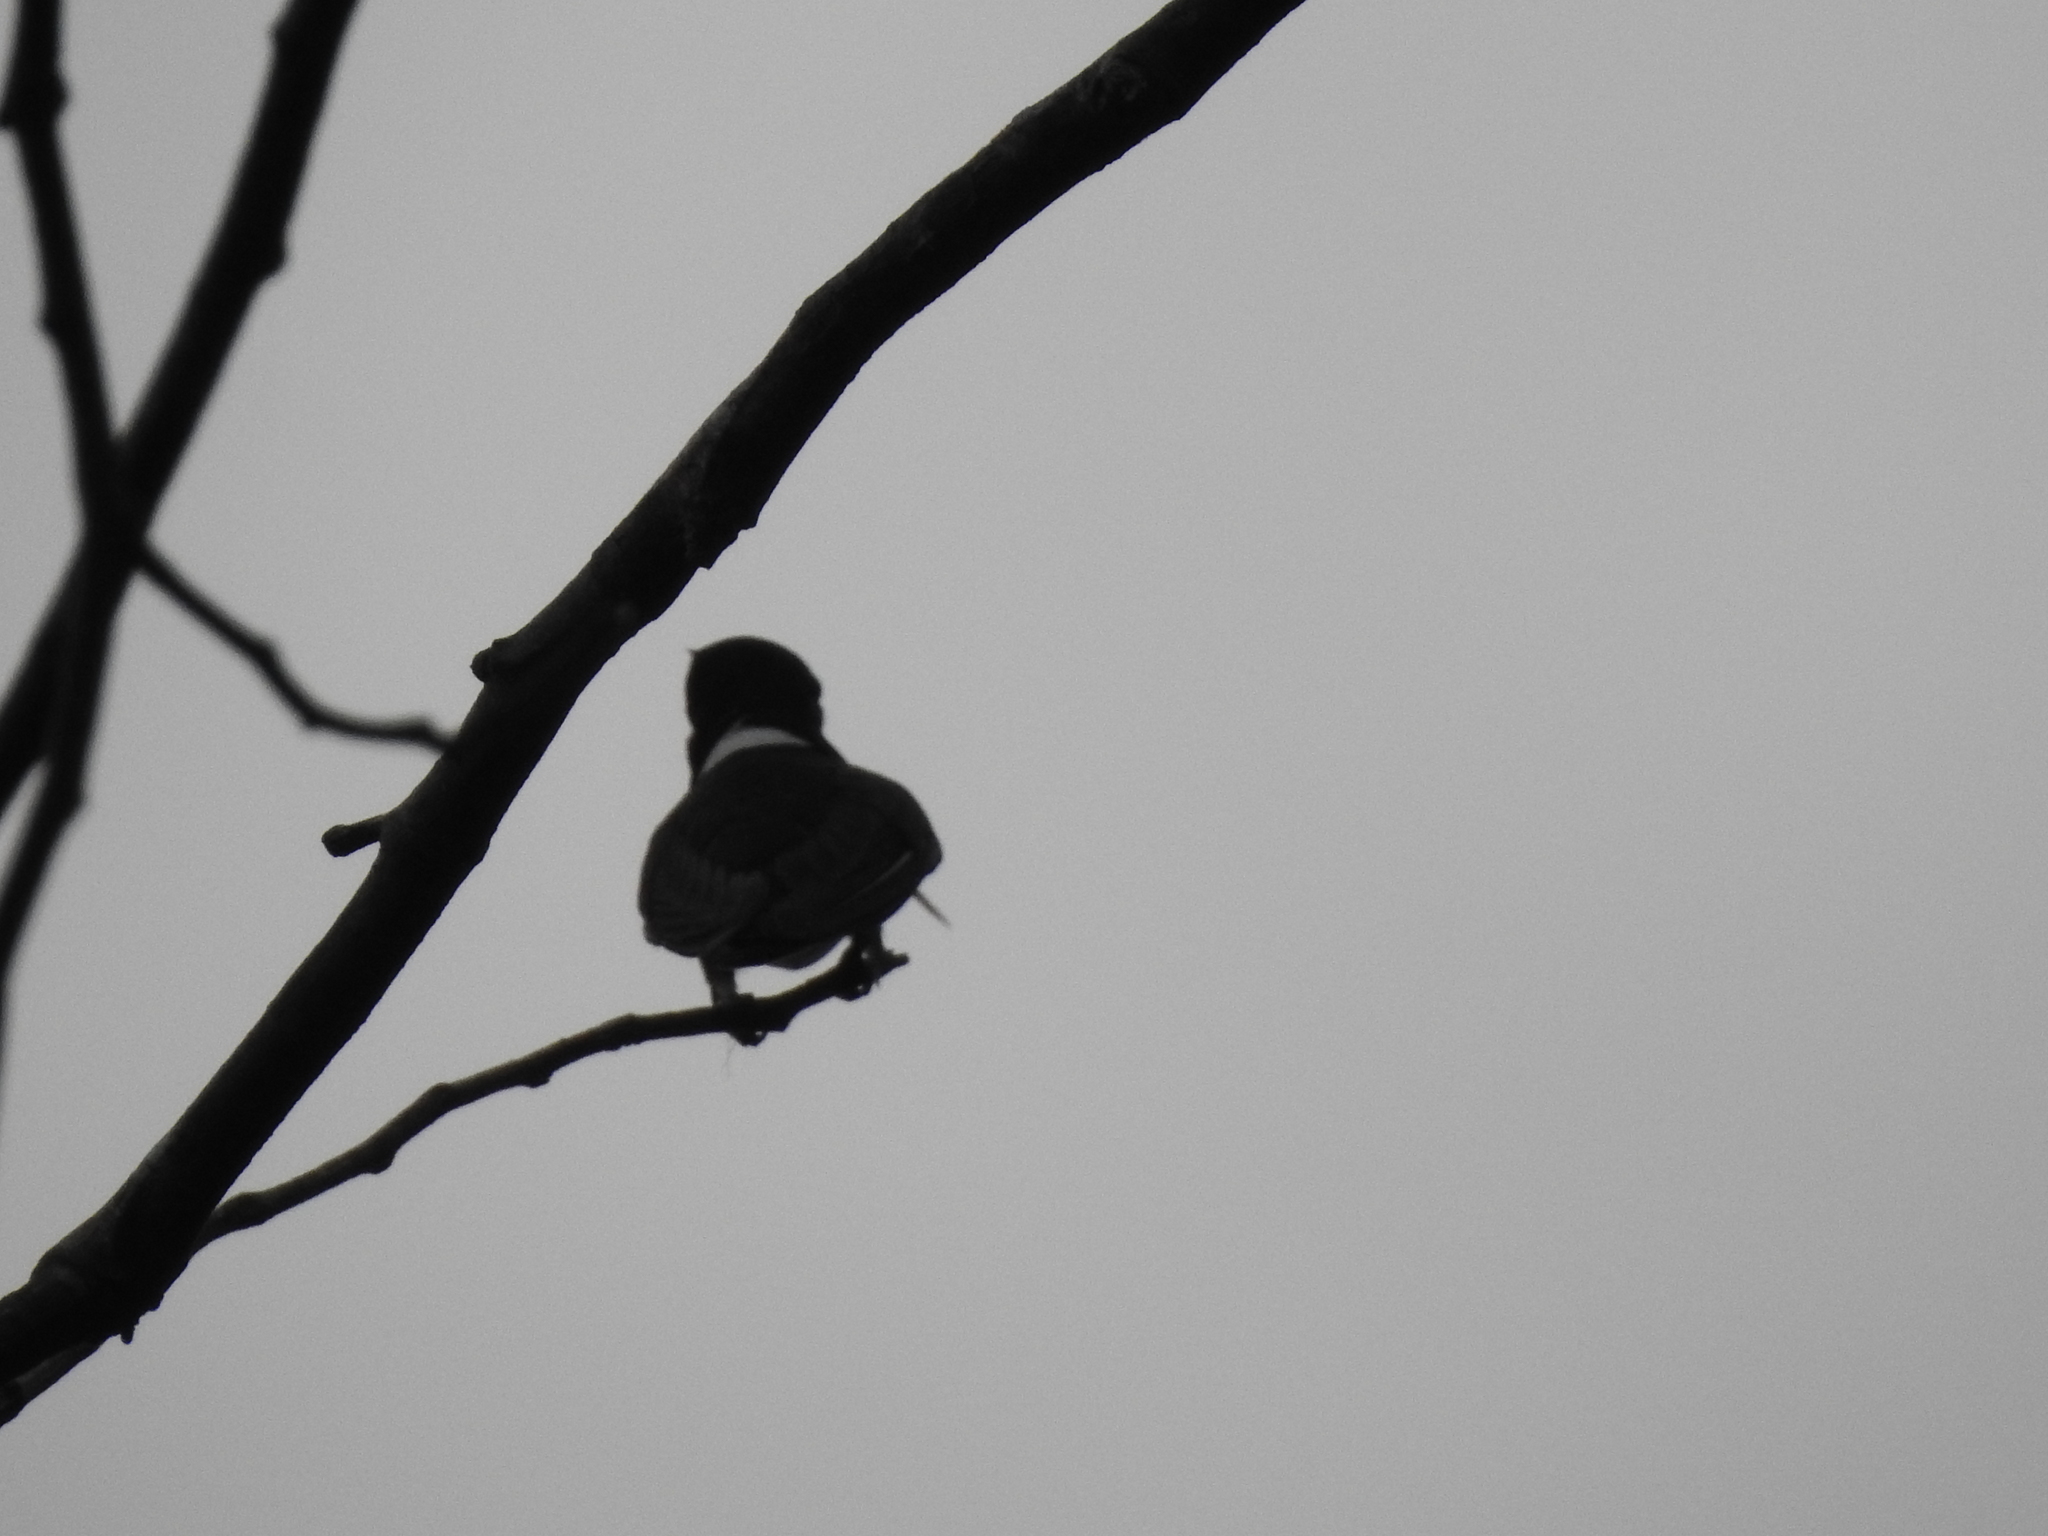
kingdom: Animalia
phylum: Chordata
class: Aves
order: Apodiformes
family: Trochilidae
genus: Florisuga
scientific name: Florisuga mellivora
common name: White-necked jacobin
